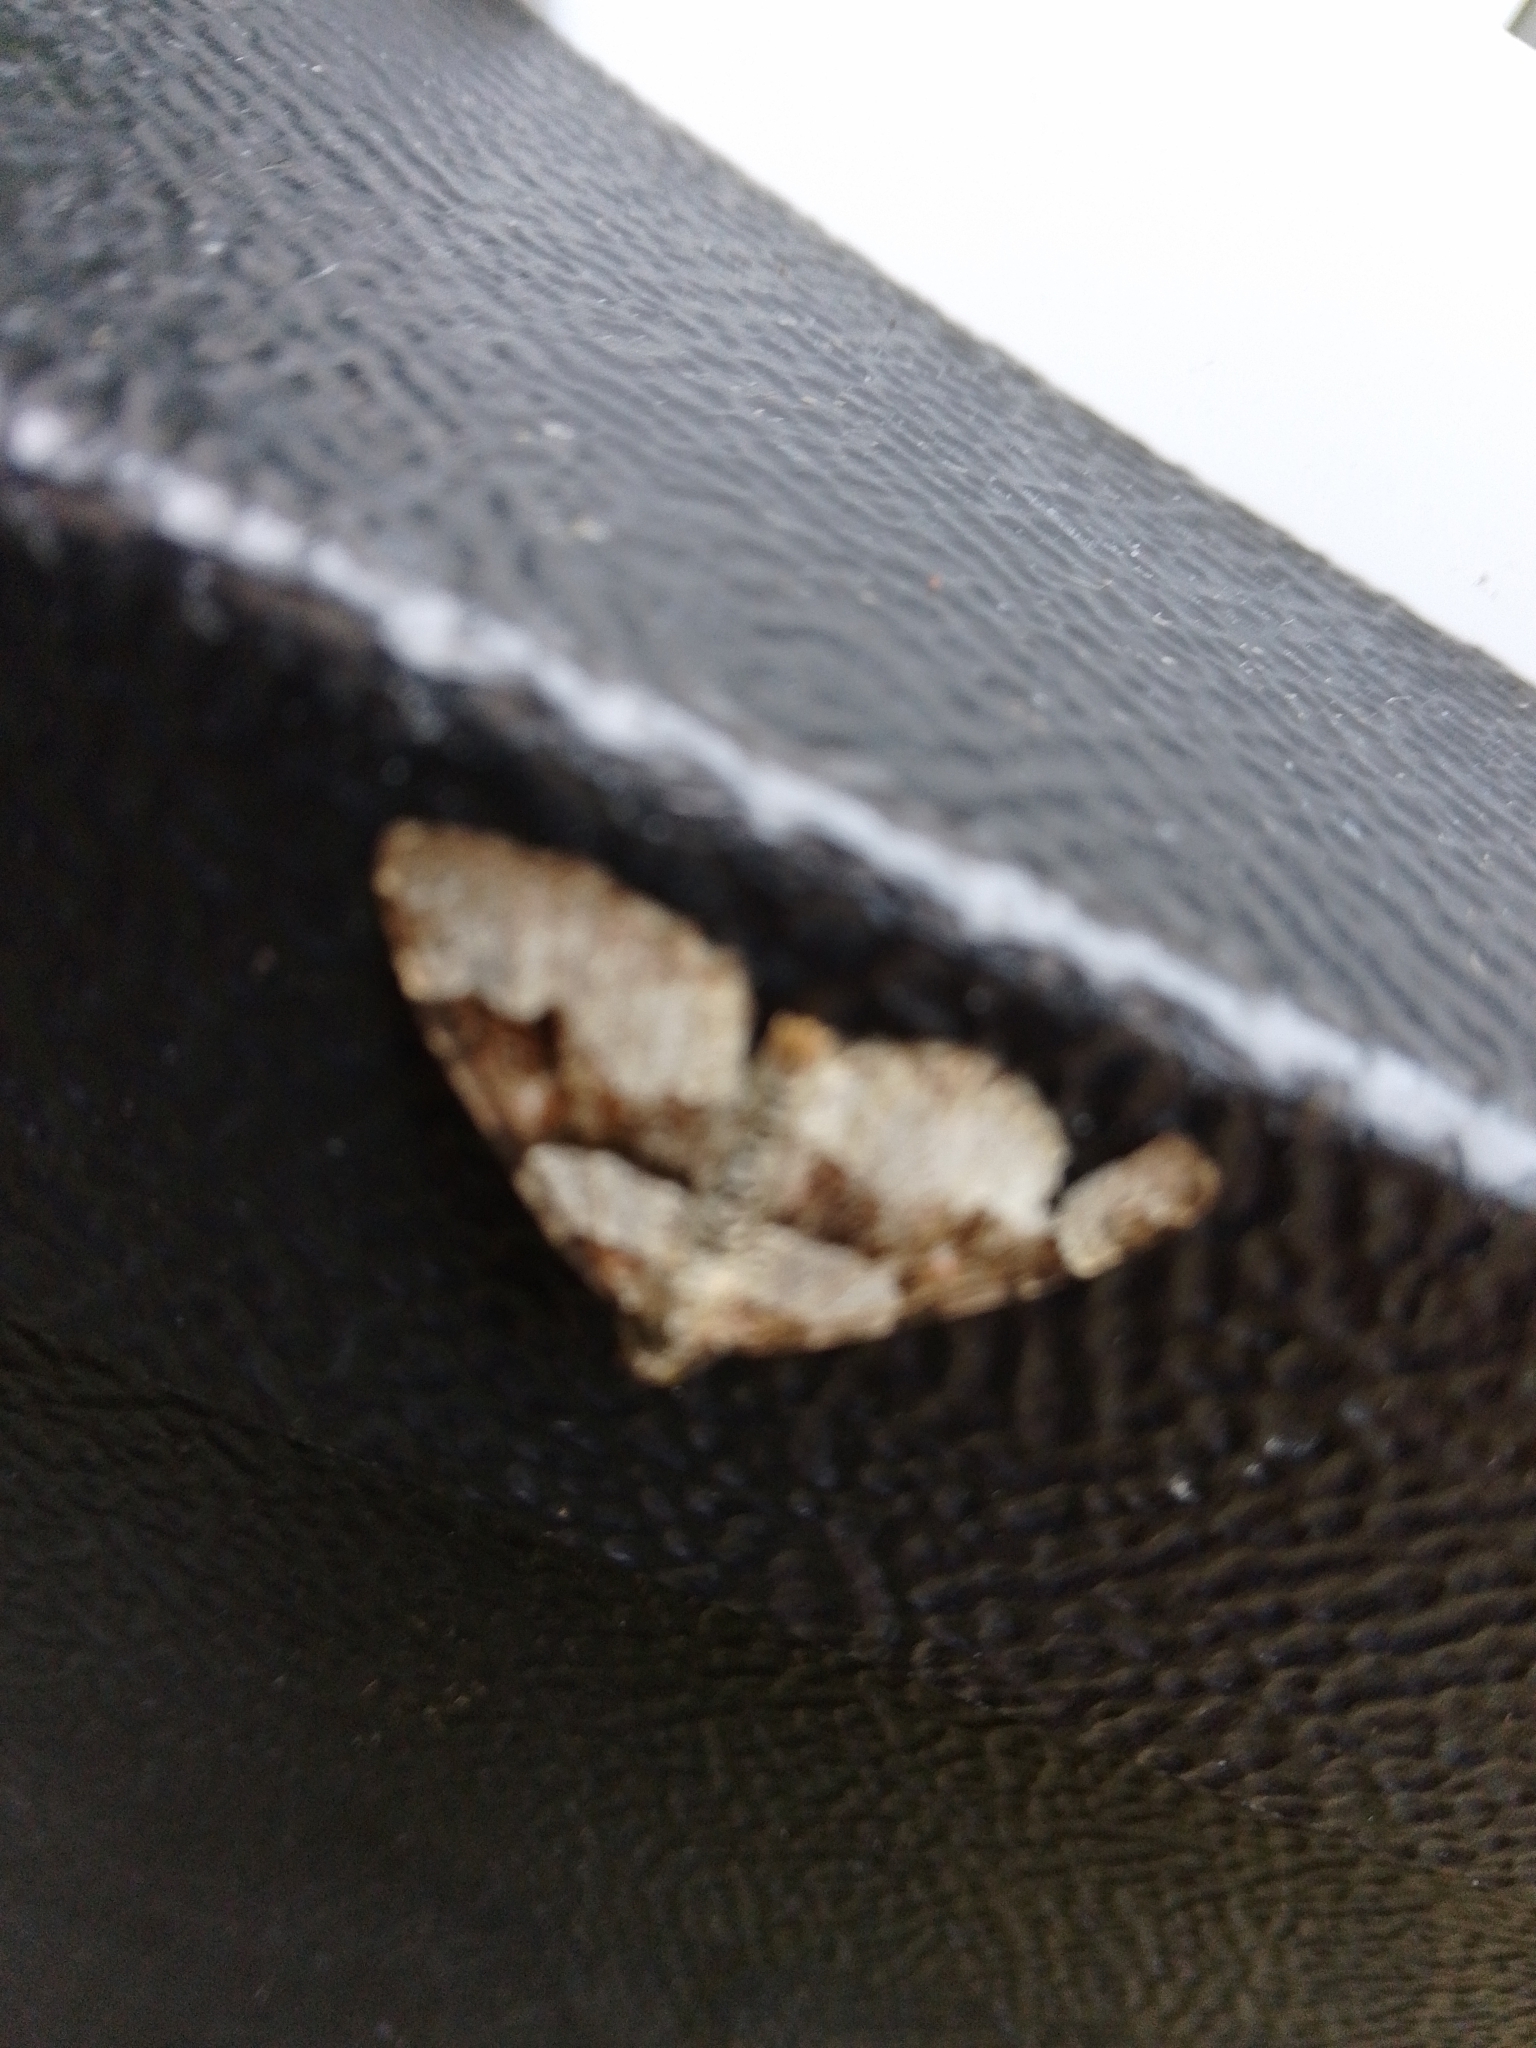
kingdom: Animalia
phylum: Arthropoda
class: Insecta
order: Lepidoptera
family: Geometridae
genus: Xanthorhoe
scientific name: Xanthorhoe designata
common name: Flame carpet
